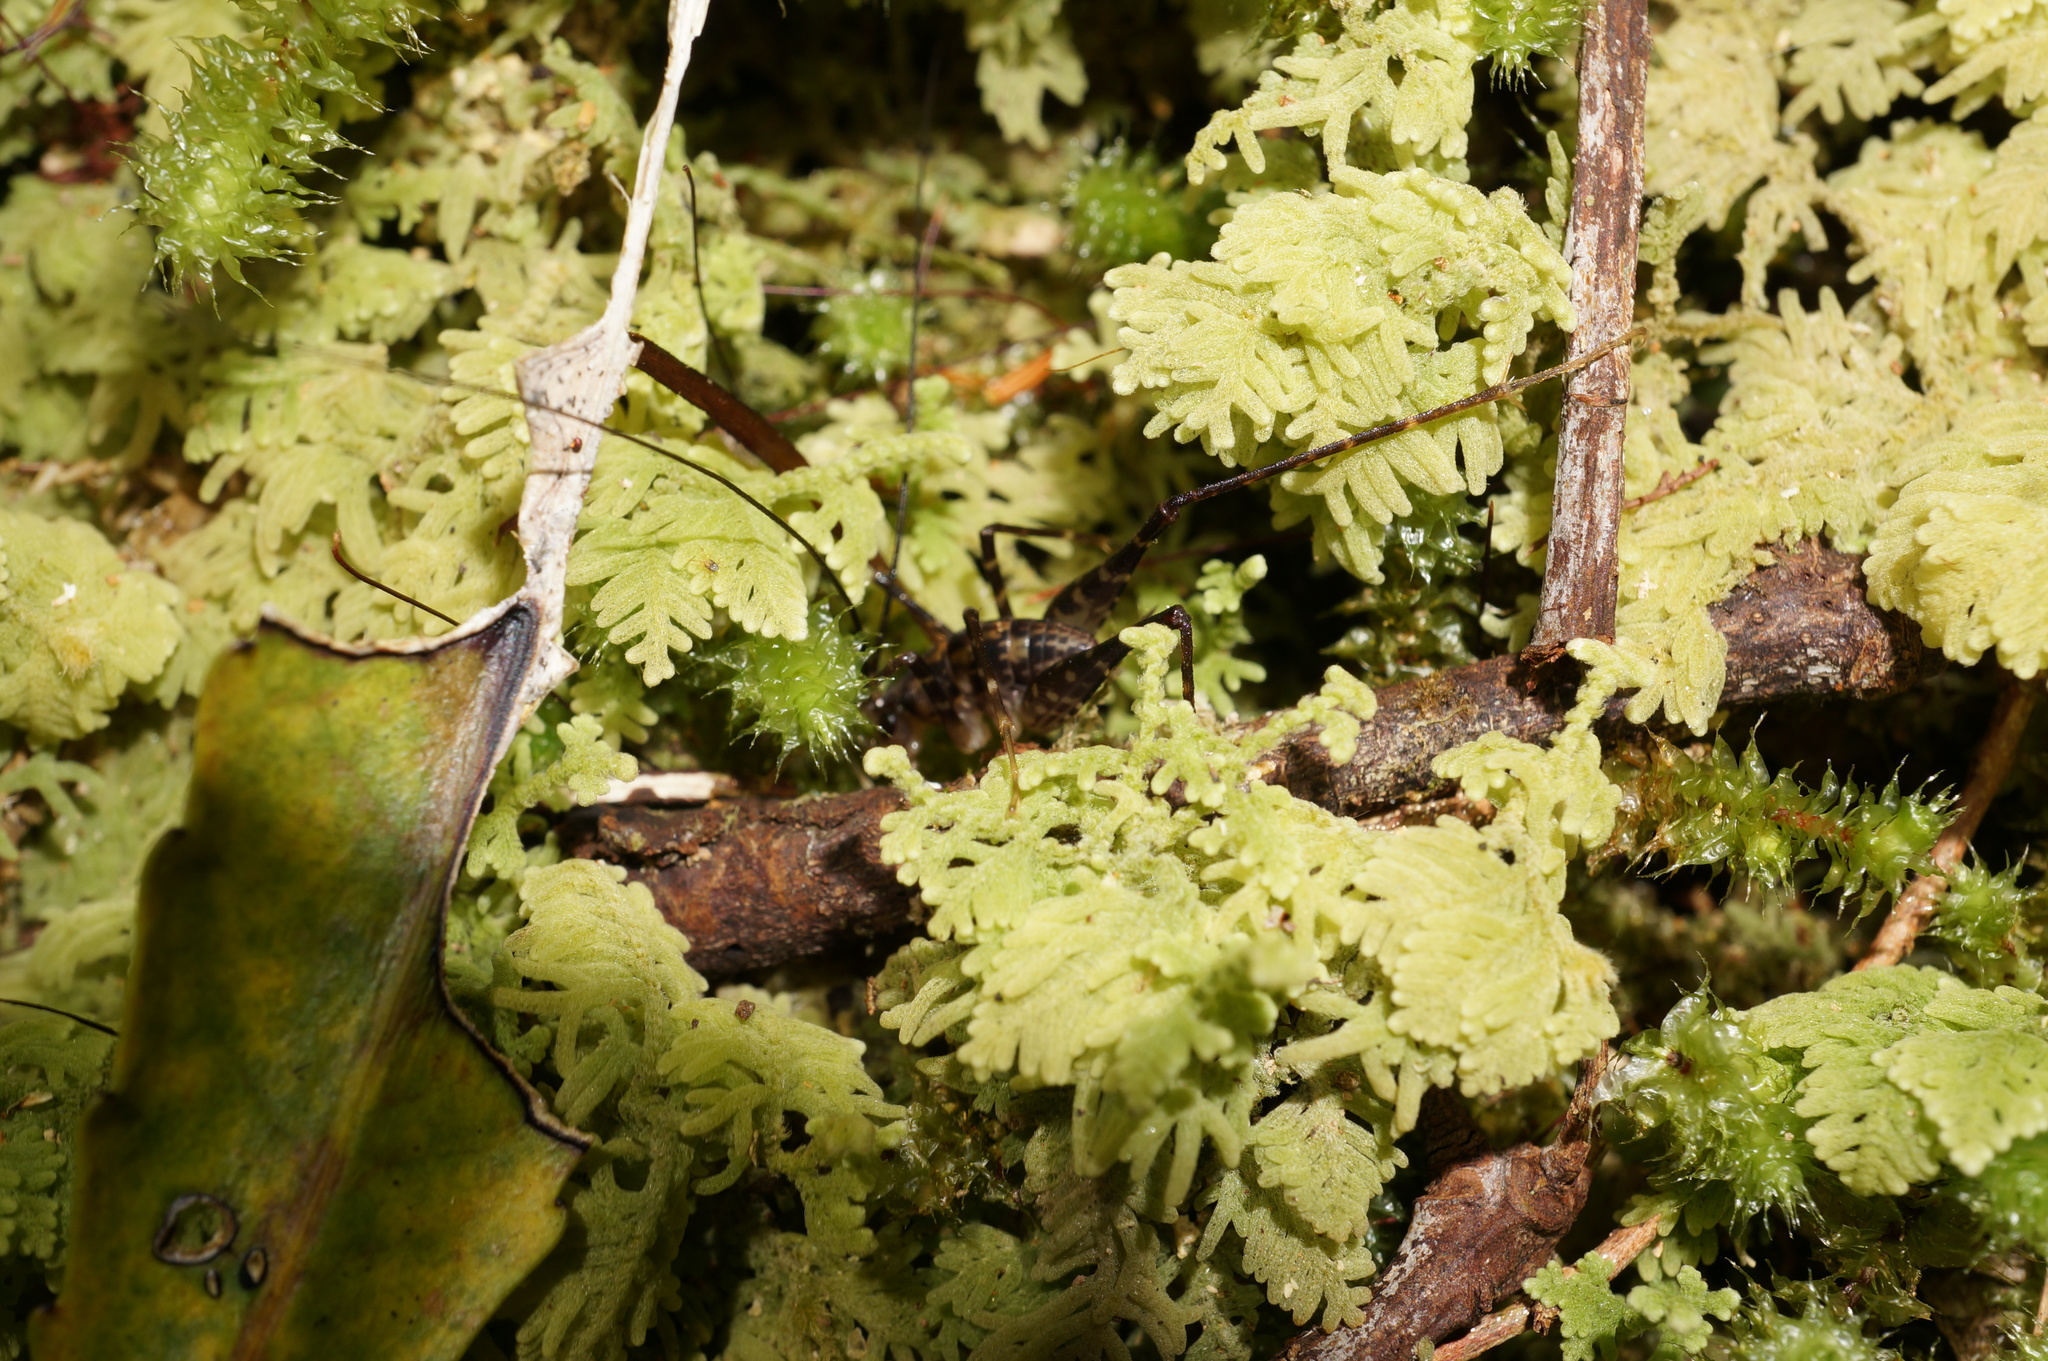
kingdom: Animalia
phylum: Arthropoda
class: Insecta
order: Orthoptera
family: Rhaphidophoridae
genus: Miotopus
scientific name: Miotopus diversus
